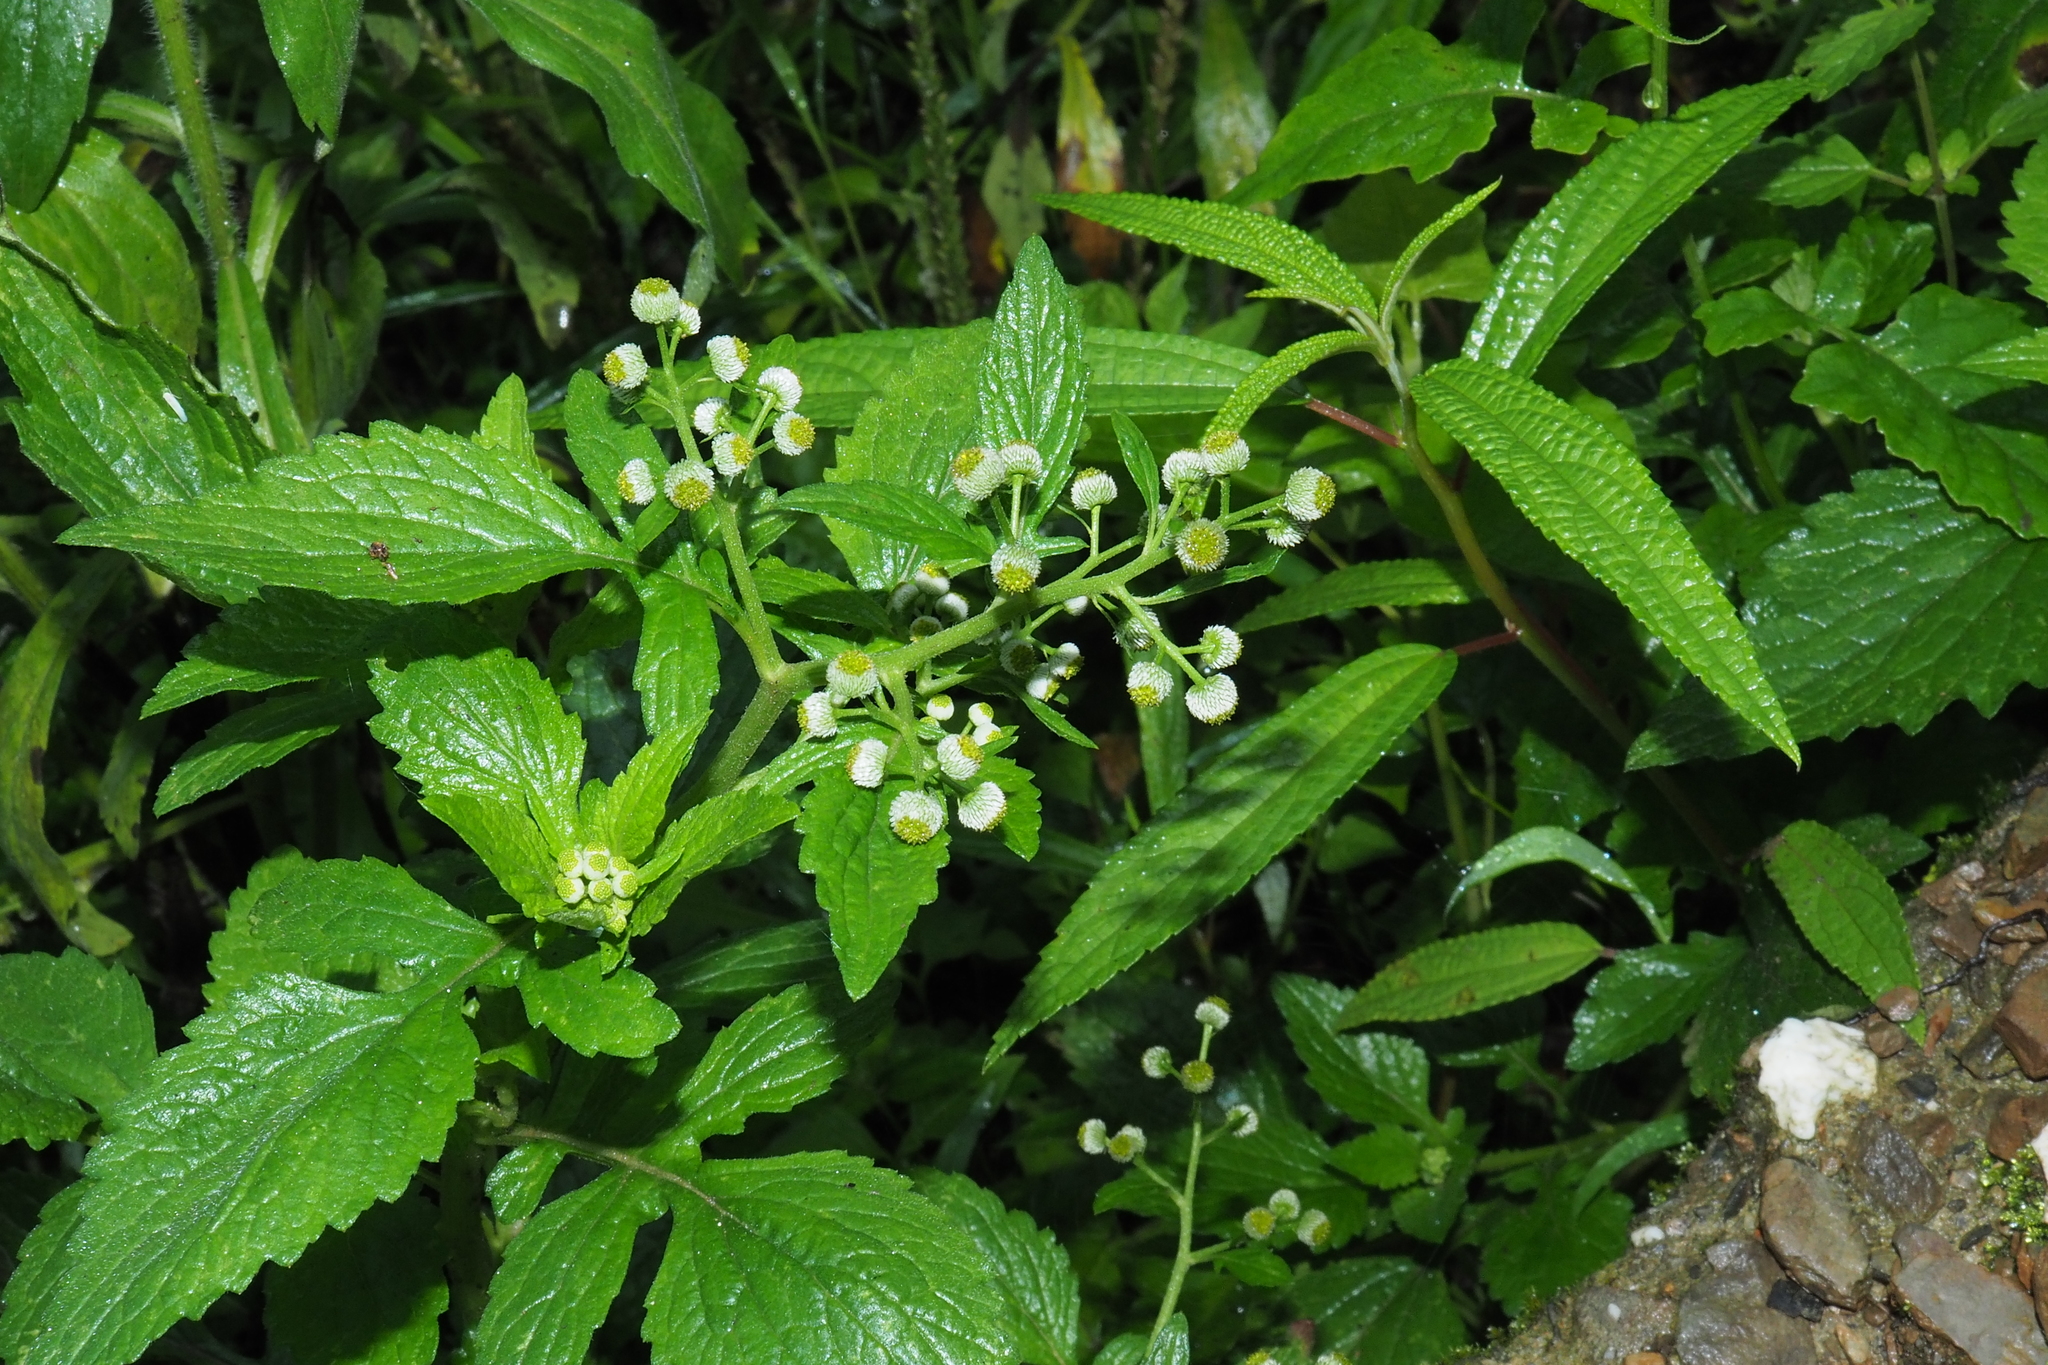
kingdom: Plantae
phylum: Tracheophyta
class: Magnoliopsida
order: Asterales
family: Asteraceae
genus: Dichrocephala
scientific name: Dichrocephala integrifolia
